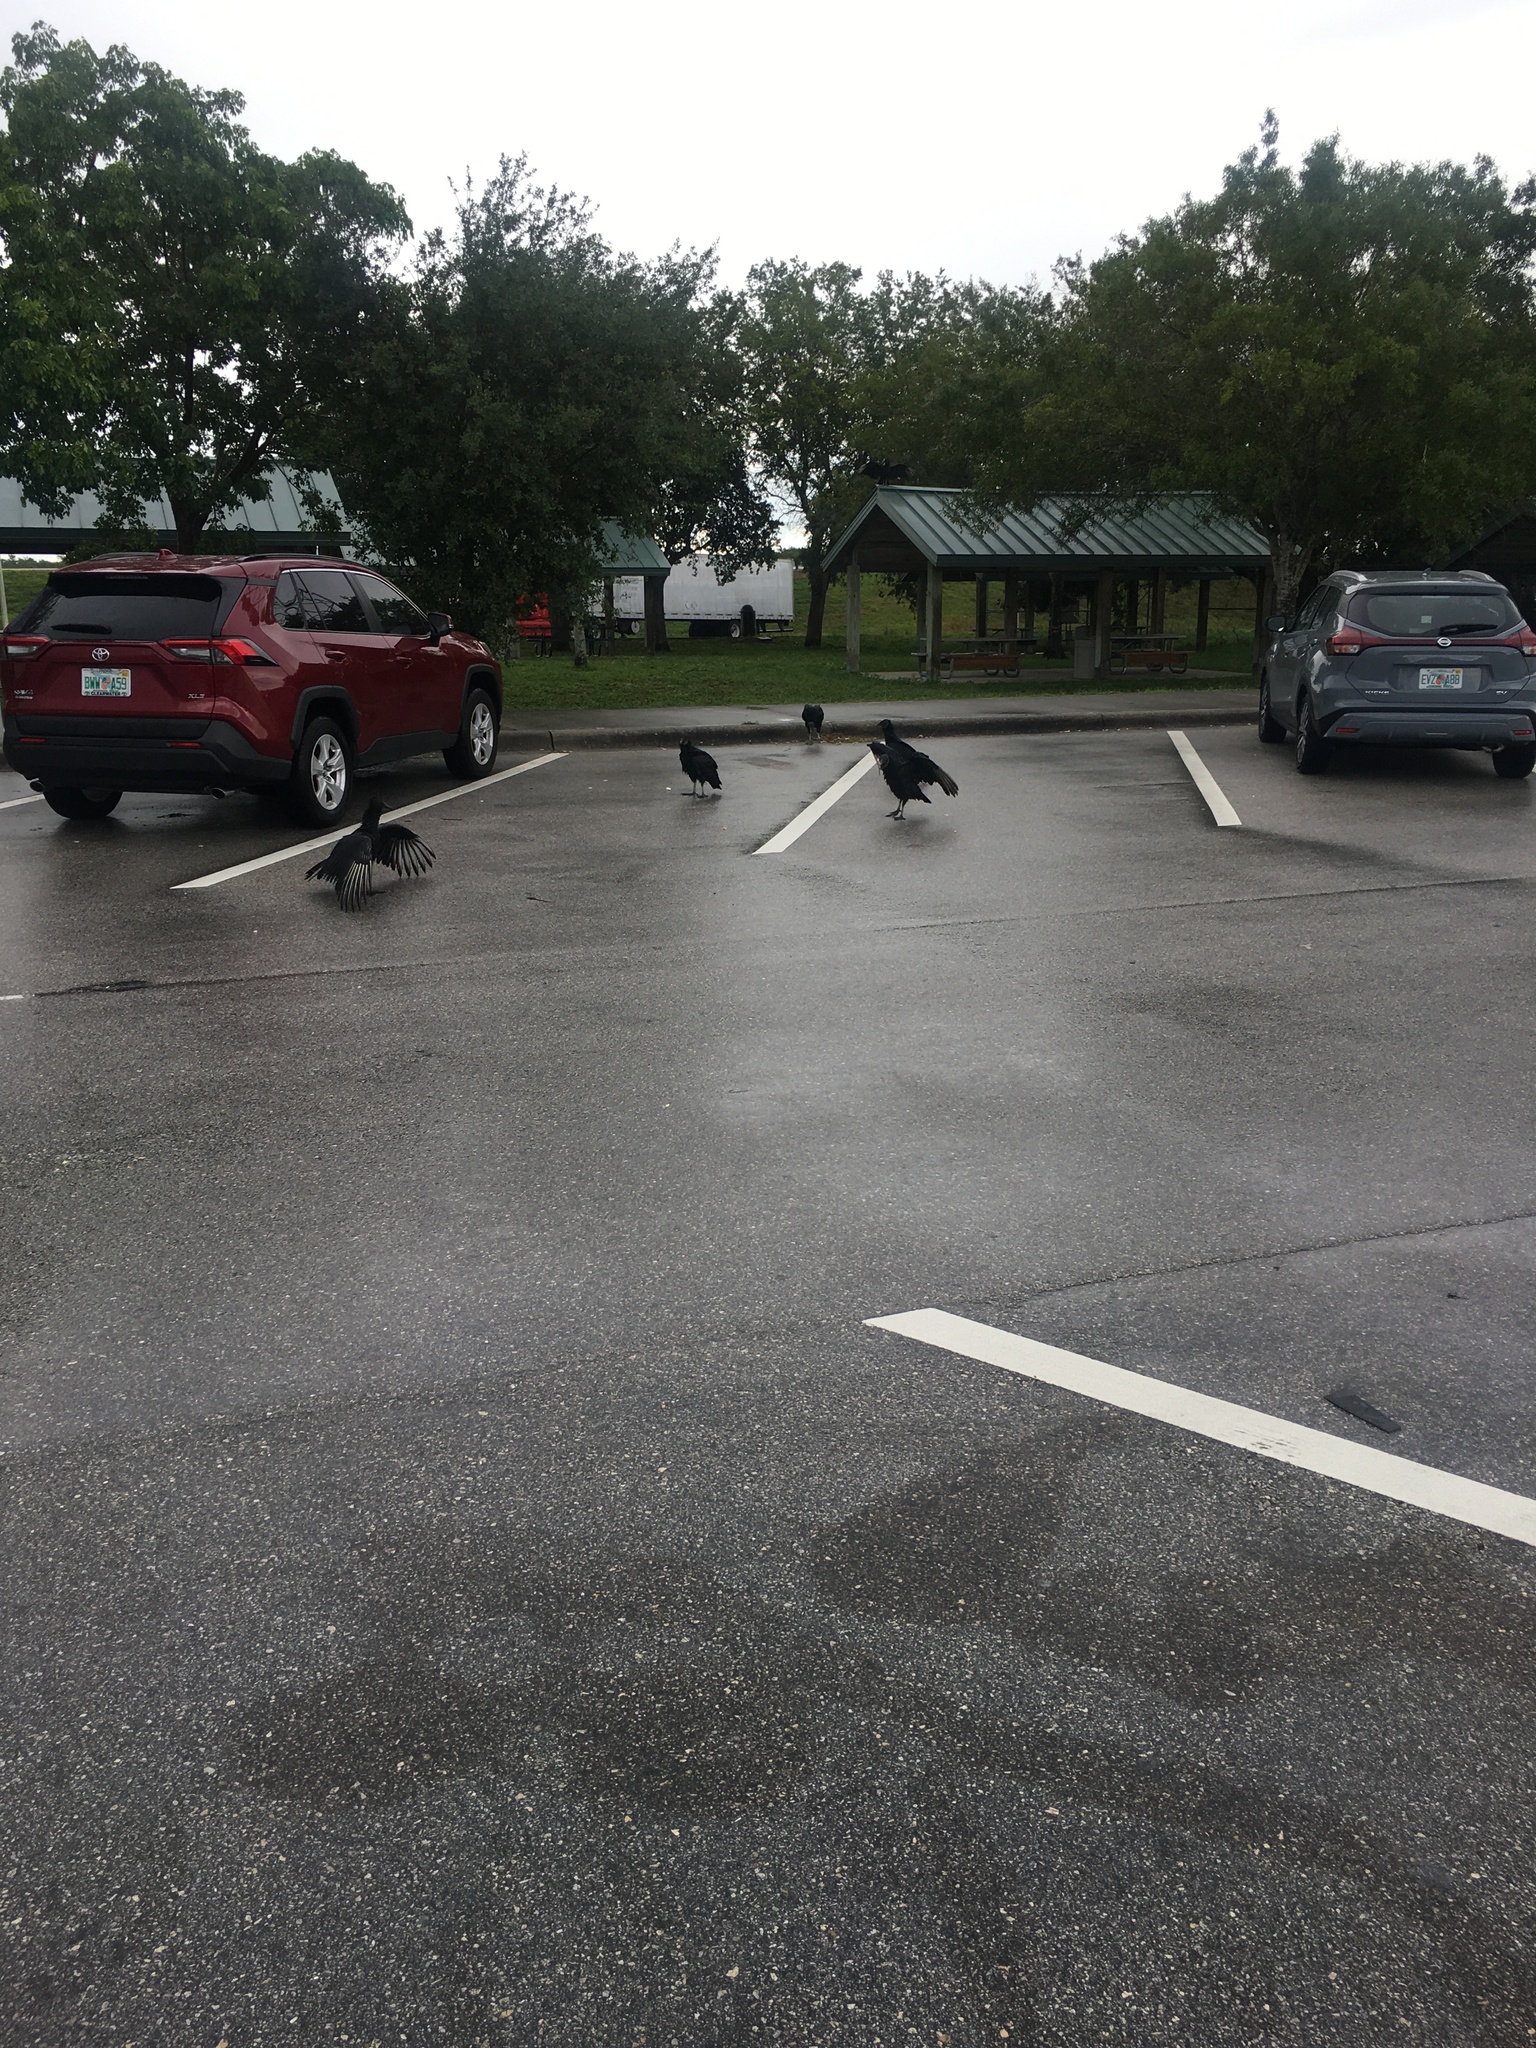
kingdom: Animalia
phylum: Chordata
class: Aves
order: Accipitriformes
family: Cathartidae
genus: Coragyps
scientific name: Coragyps atratus
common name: Black vulture
